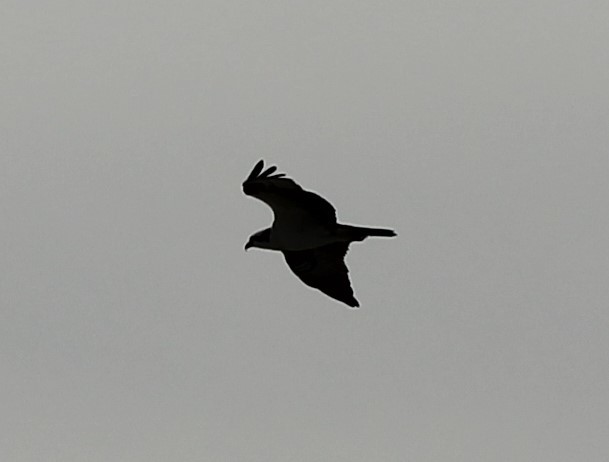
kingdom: Animalia
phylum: Chordata
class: Aves
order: Accipitriformes
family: Pandionidae
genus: Pandion
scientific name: Pandion haliaetus
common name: Osprey
